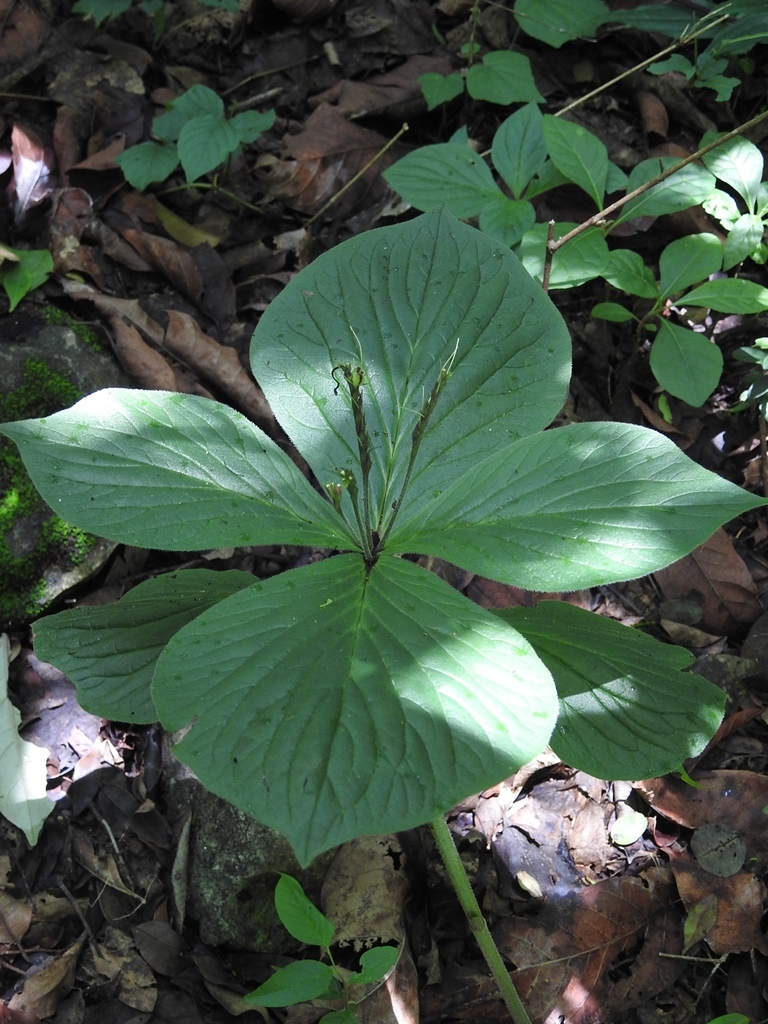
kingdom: Plantae
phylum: Tracheophyta
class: Magnoliopsida
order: Gentianales
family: Loganiaceae
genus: Spigelia
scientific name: Spigelia splendens
